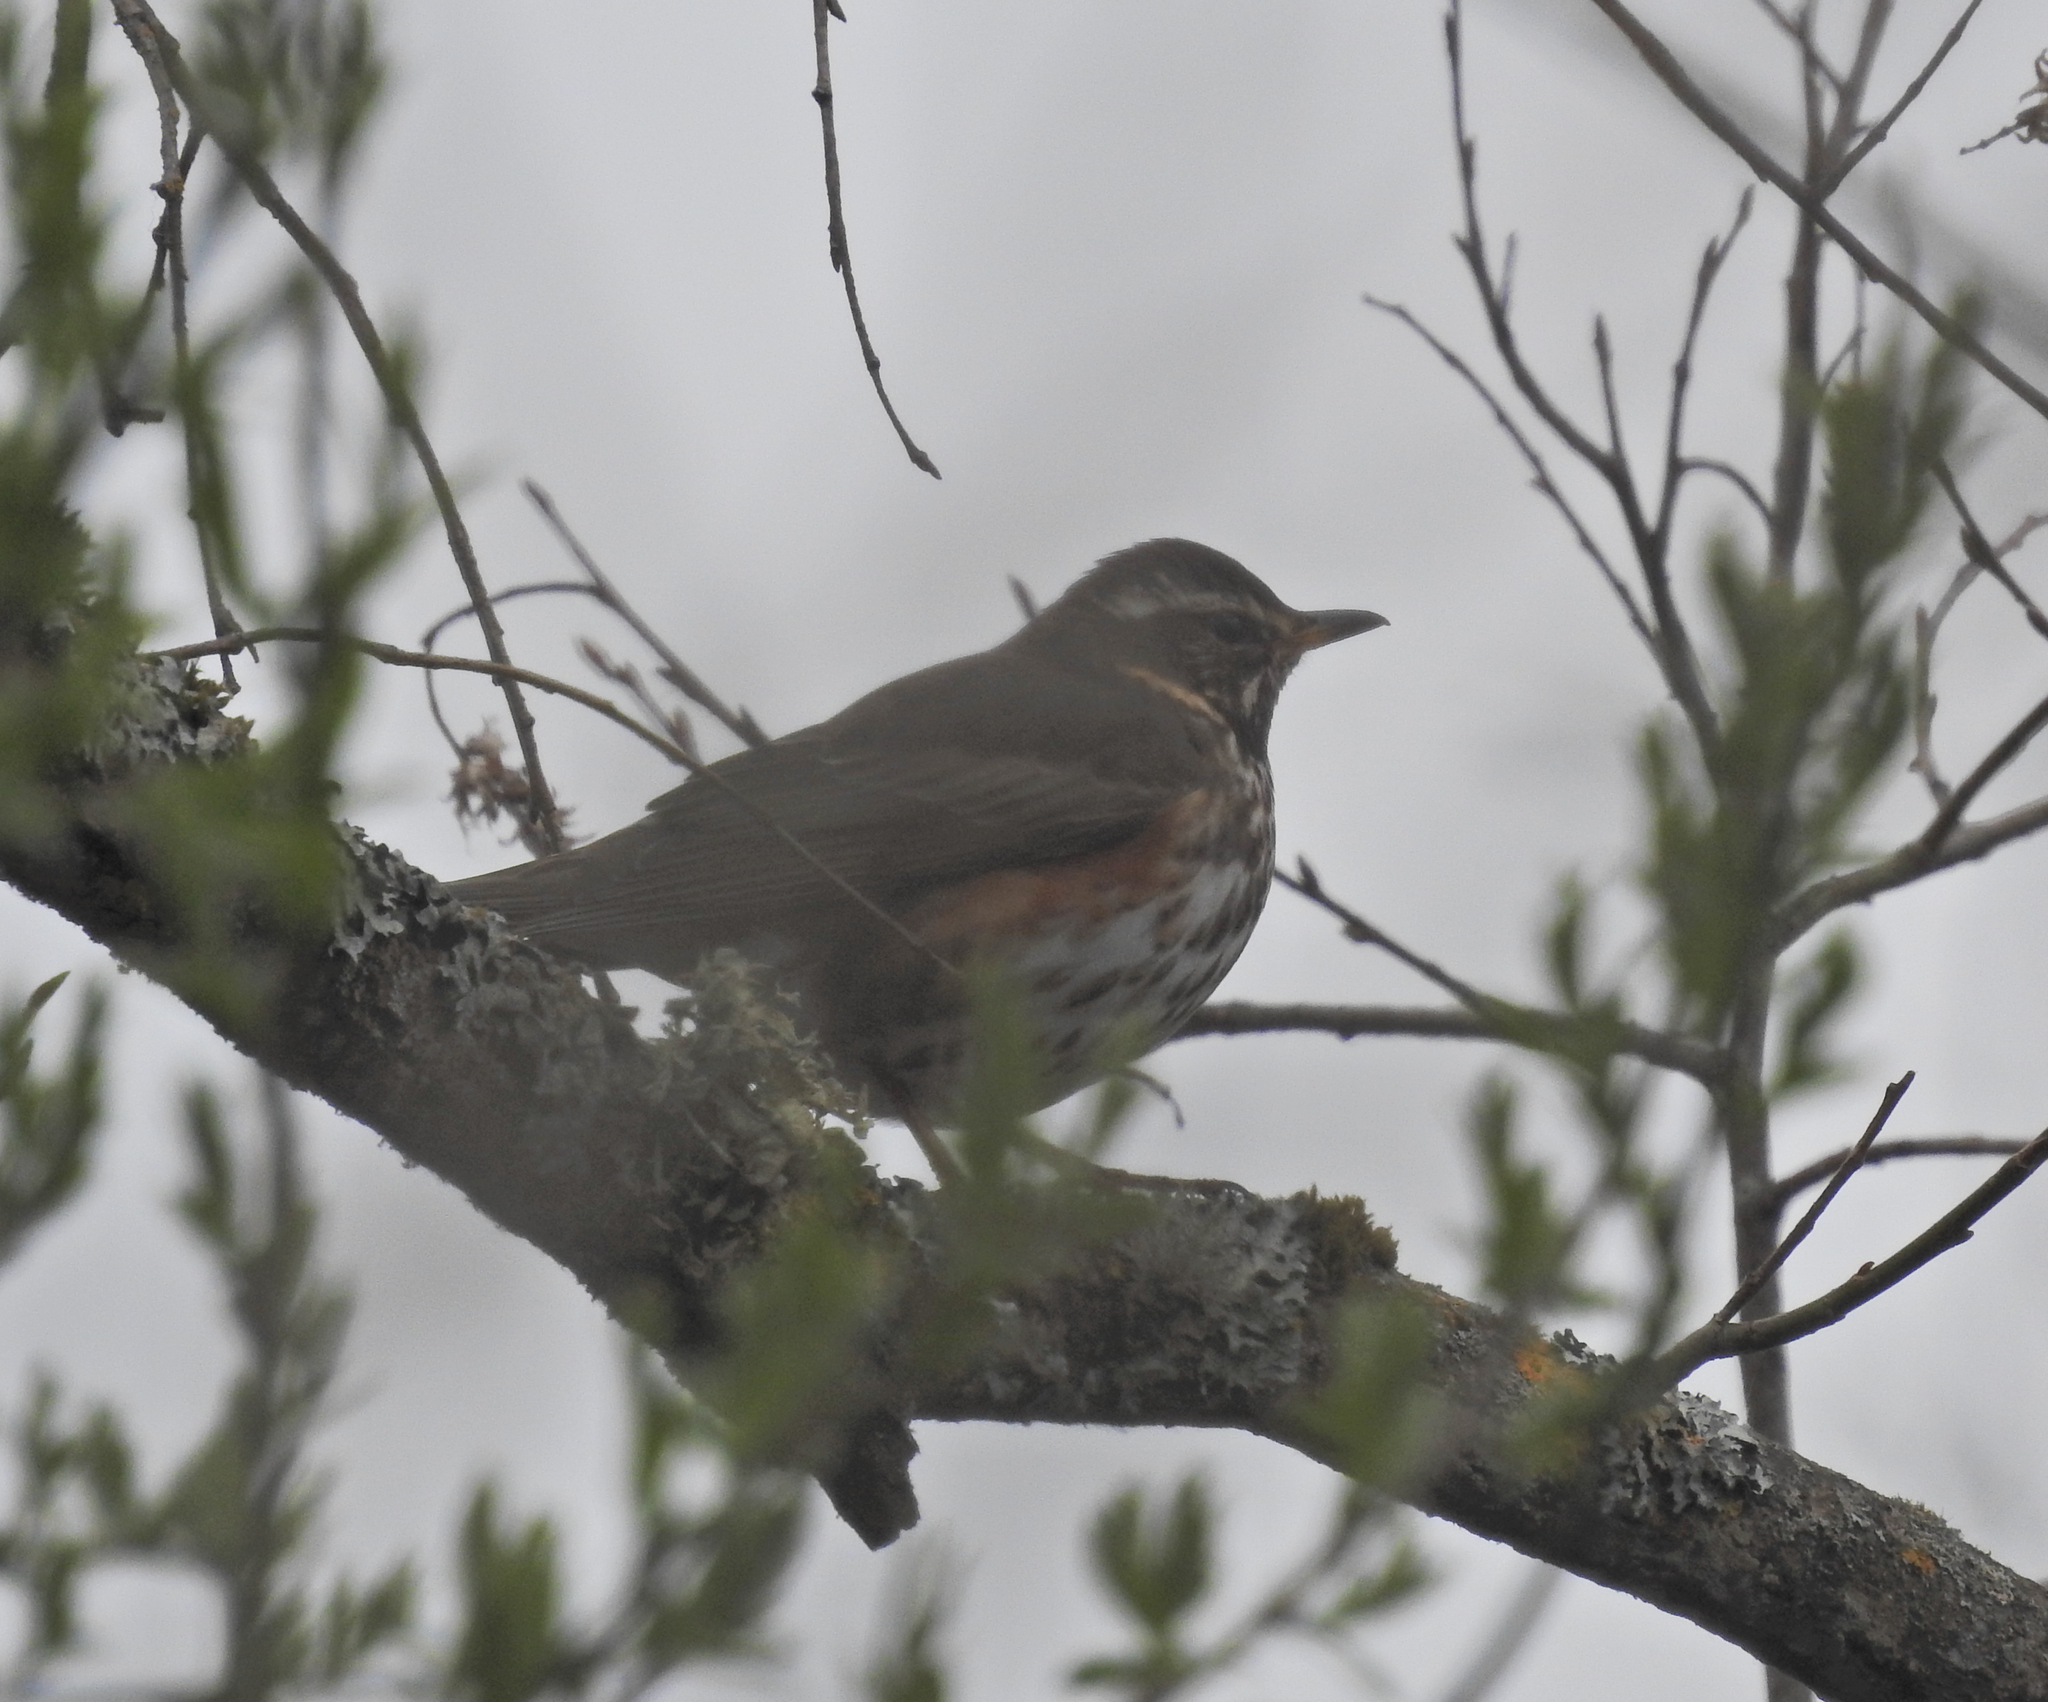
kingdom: Animalia
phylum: Chordata
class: Aves
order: Passeriformes
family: Turdidae
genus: Turdus
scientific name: Turdus iliacus
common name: Redwing
